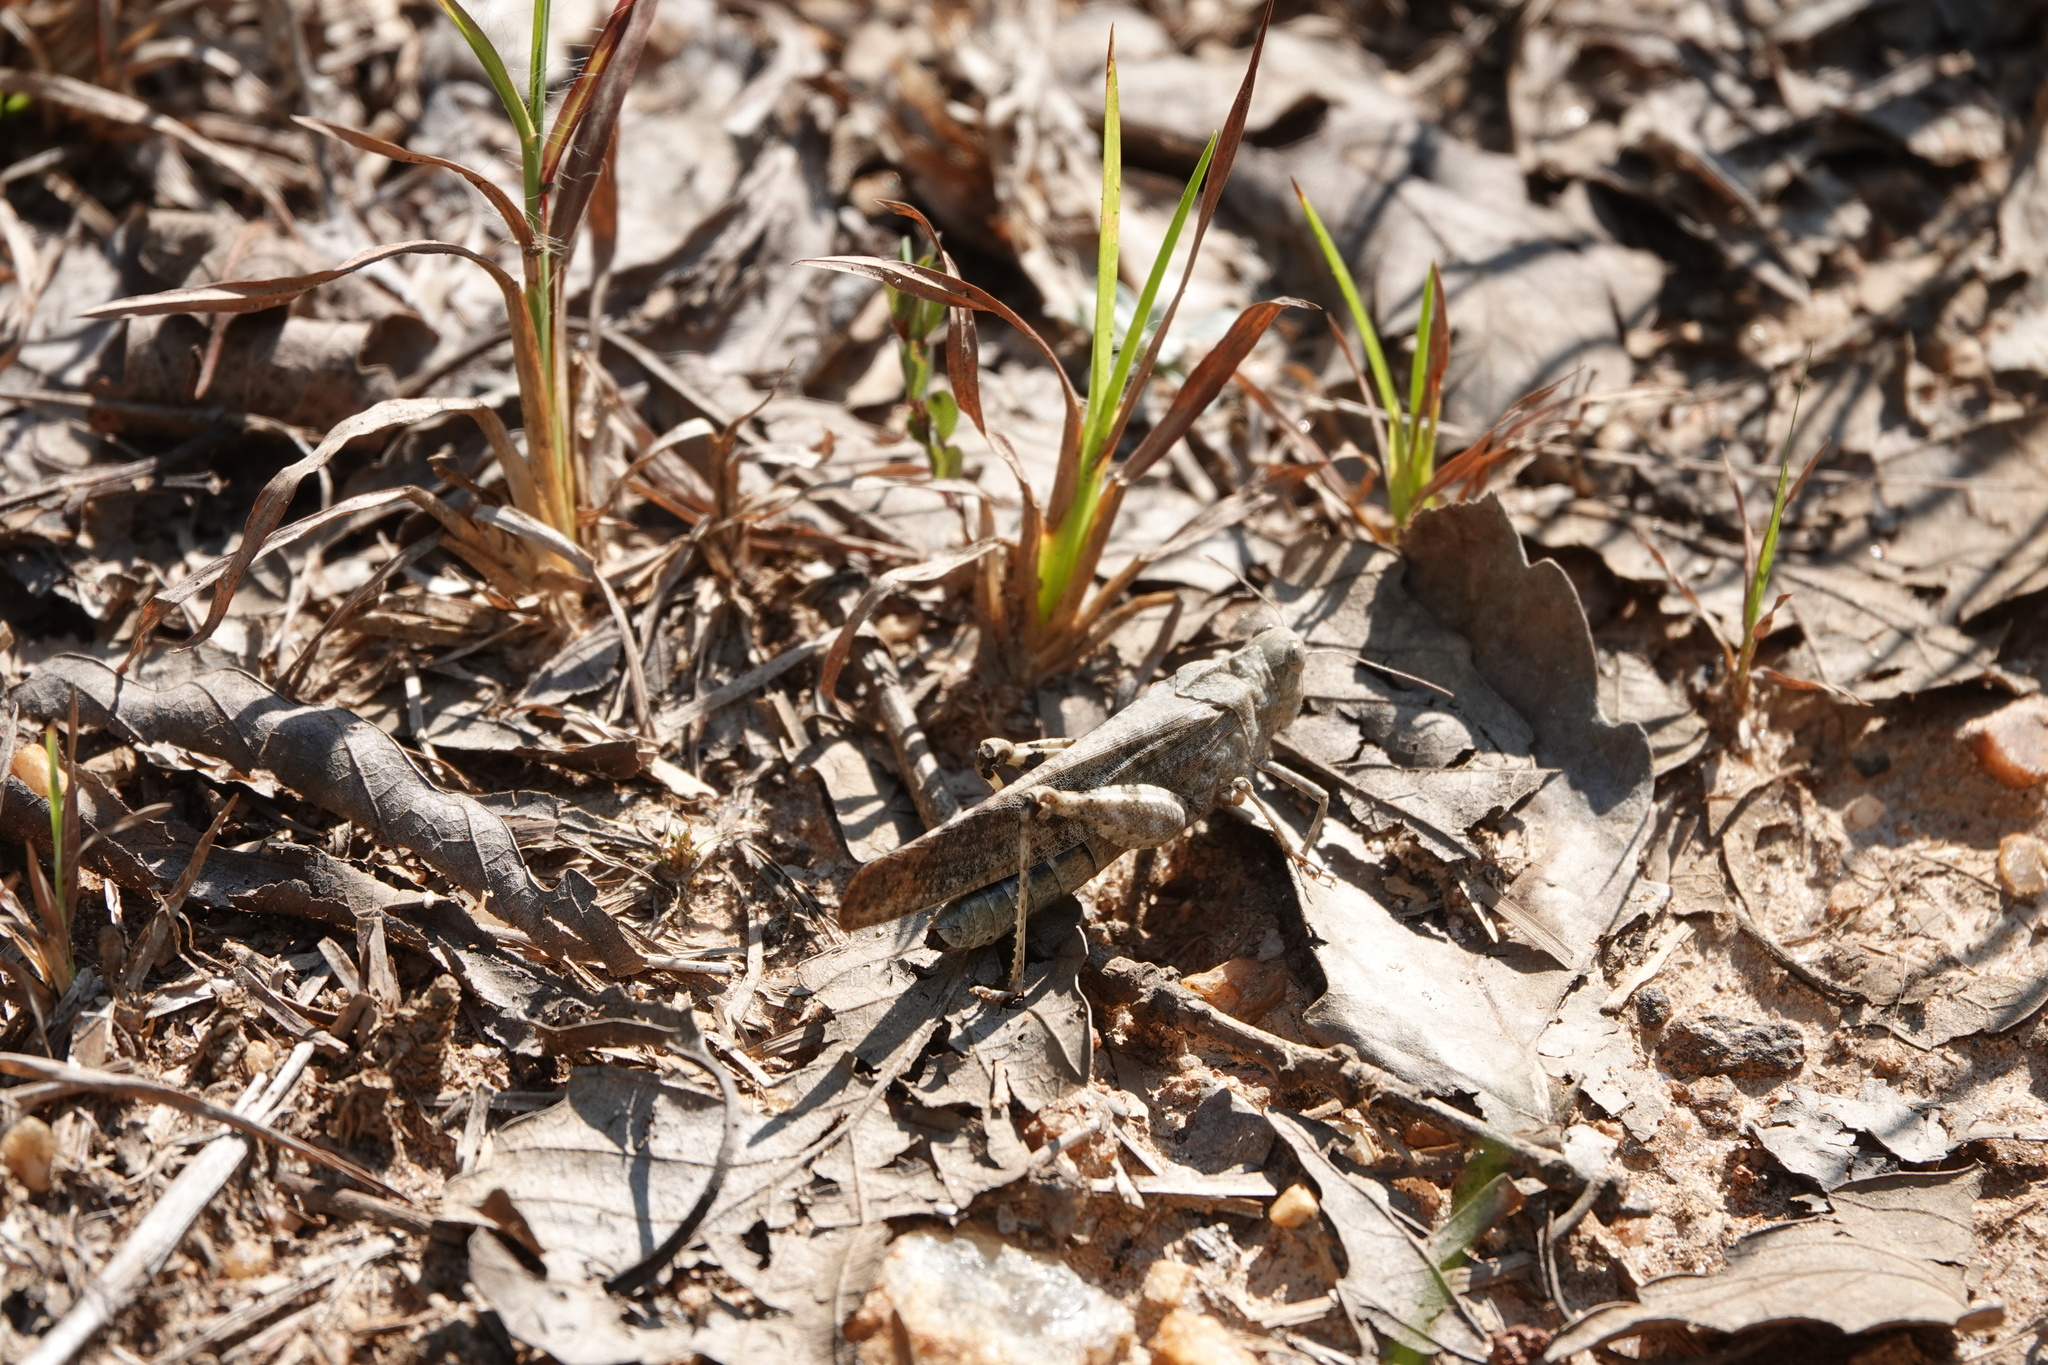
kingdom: Animalia
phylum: Arthropoda
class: Insecta
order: Orthoptera
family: Acrididae
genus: Dissosteira
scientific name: Dissosteira carolina
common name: Carolina grasshopper
